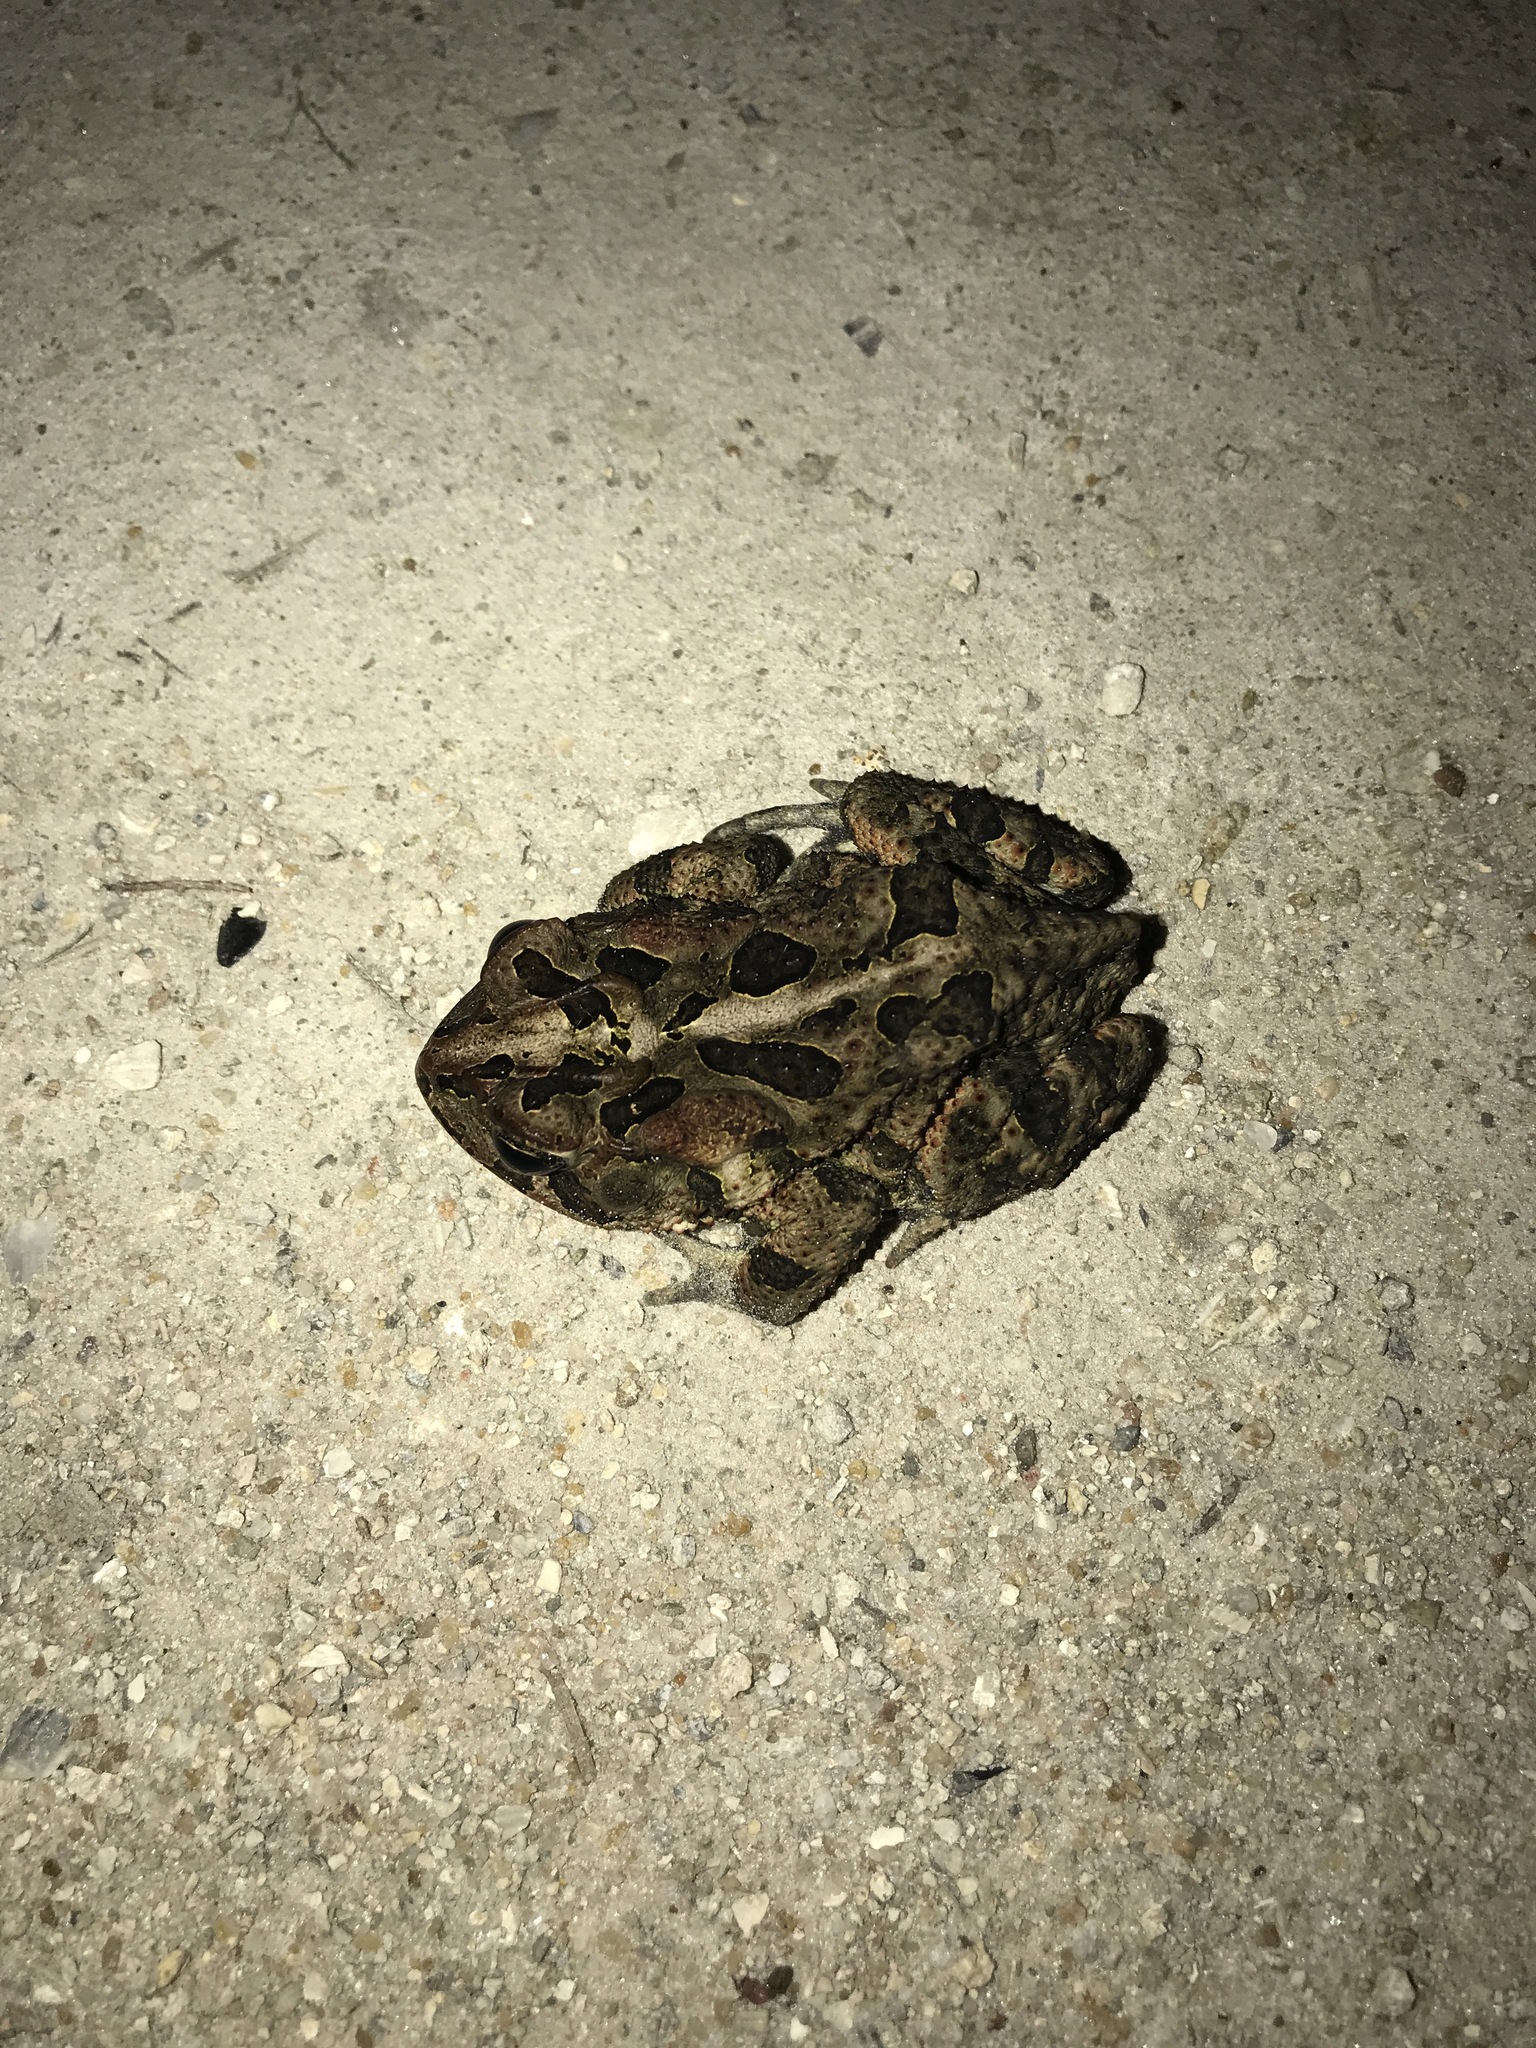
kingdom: Animalia
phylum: Chordata
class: Amphibia
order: Anura
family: Bufonidae
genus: Anaxyrus
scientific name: Anaxyrus terrestris
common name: Southern toad
